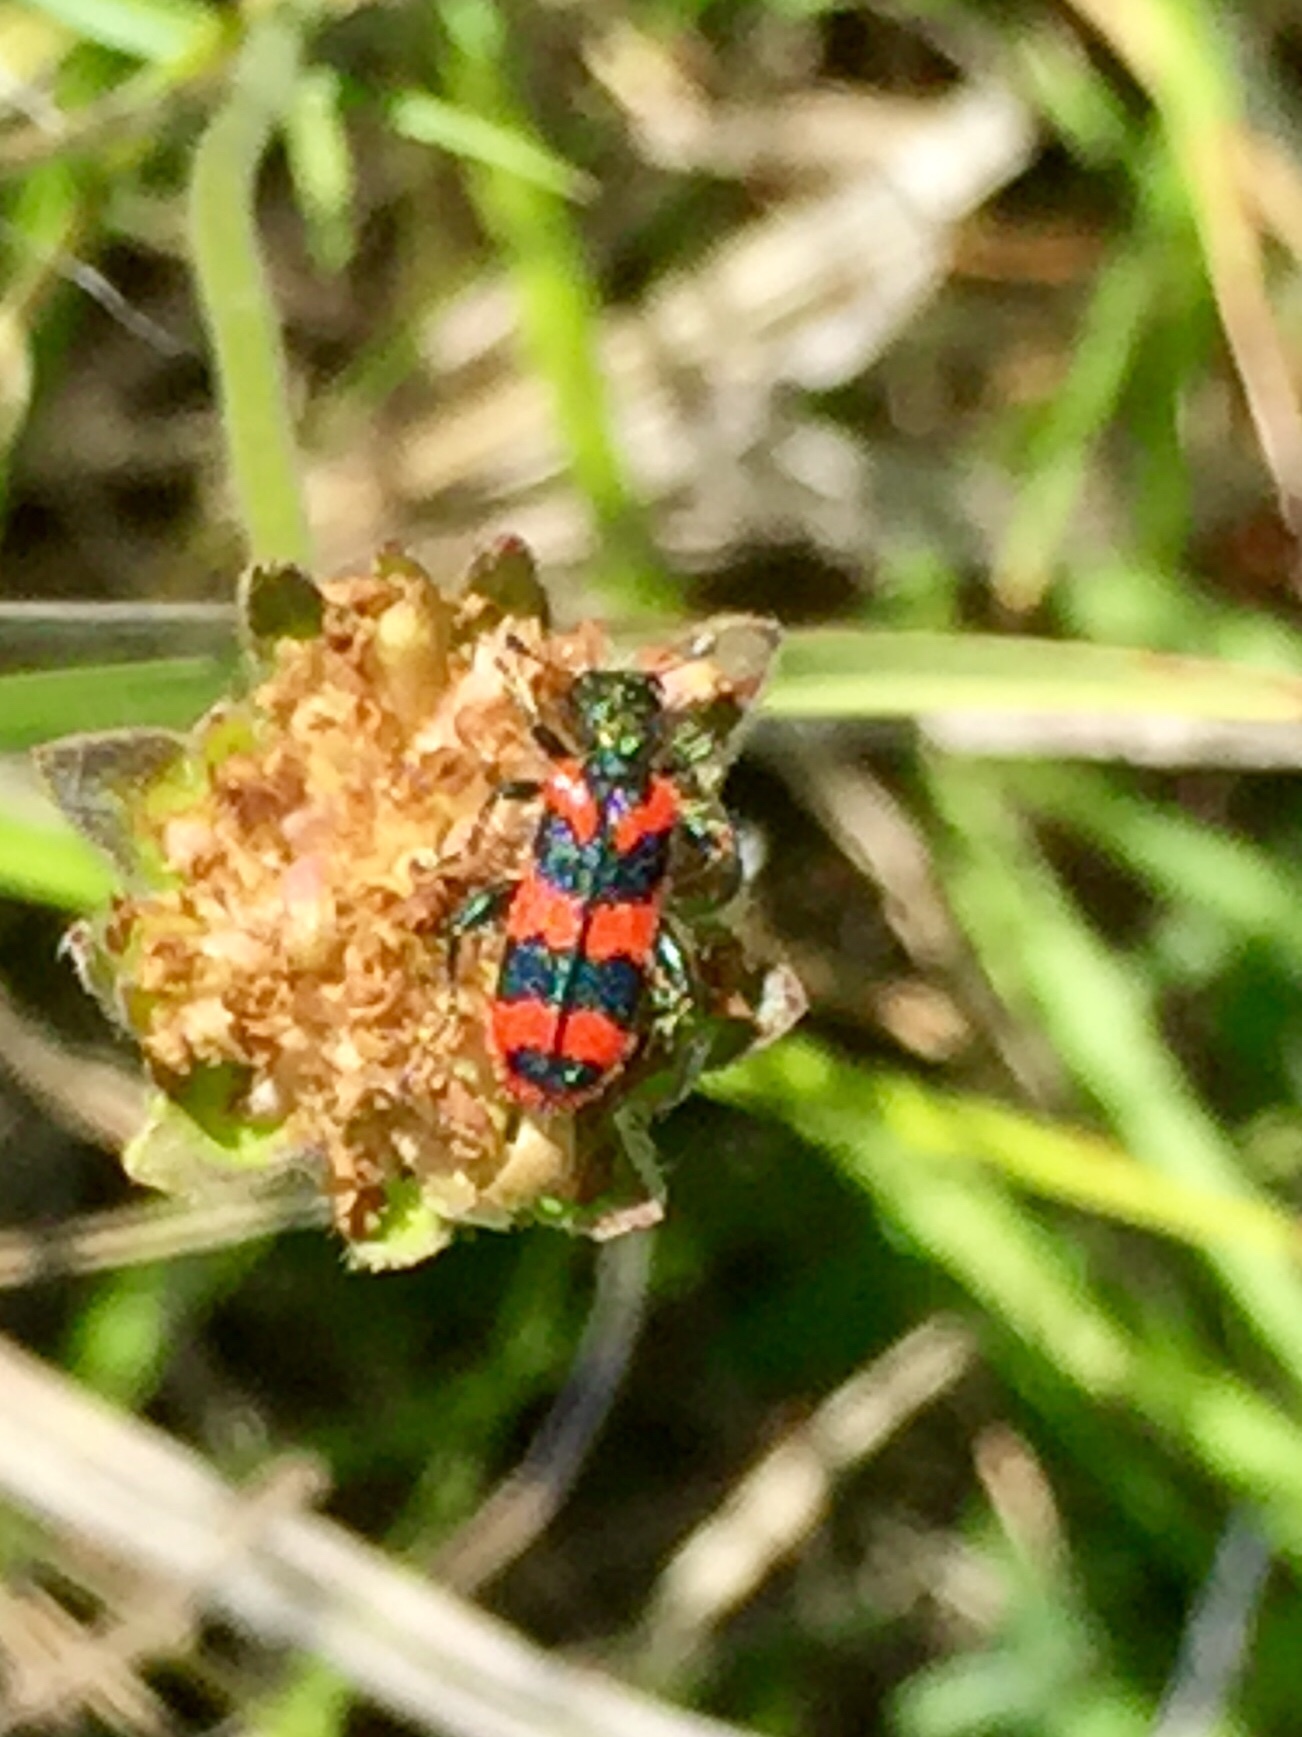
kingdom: Animalia
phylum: Arthropoda
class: Insecta
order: Coleoptera
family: Cleridae
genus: Trichodes
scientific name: Trichodes alvearius
